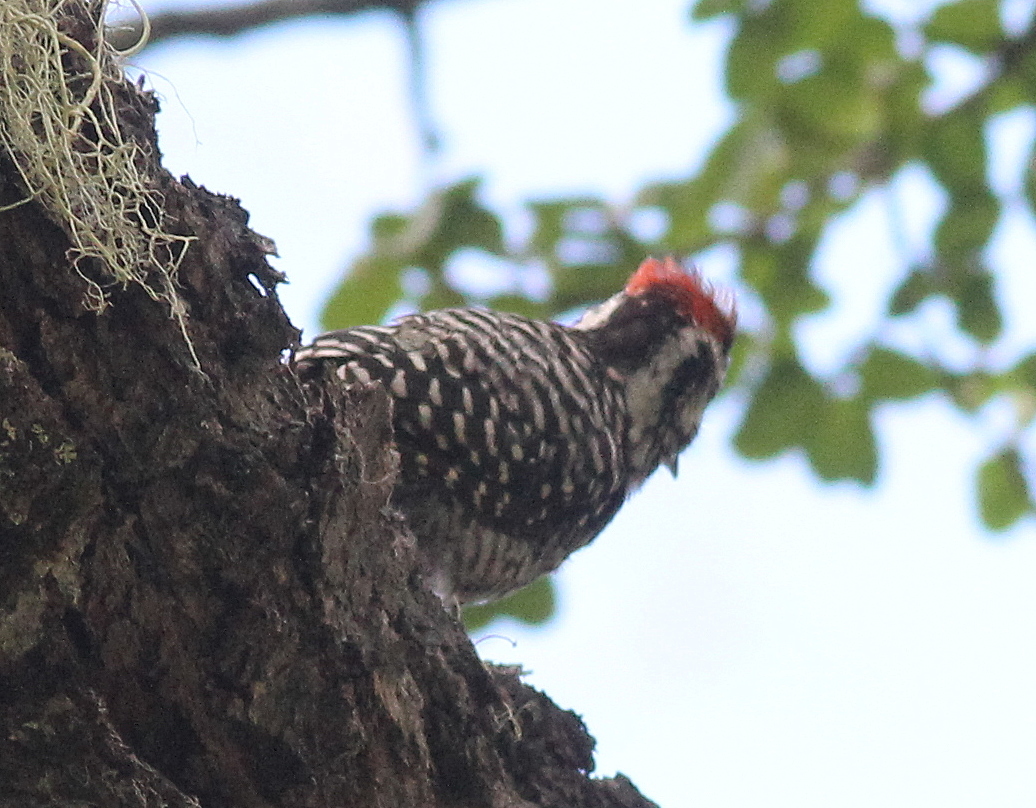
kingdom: Animalia
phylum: Chordata
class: Aves
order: Piciformes
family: Picidae
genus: Veniliornis
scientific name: Veniliornis lignarius
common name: Striped woodpecker
